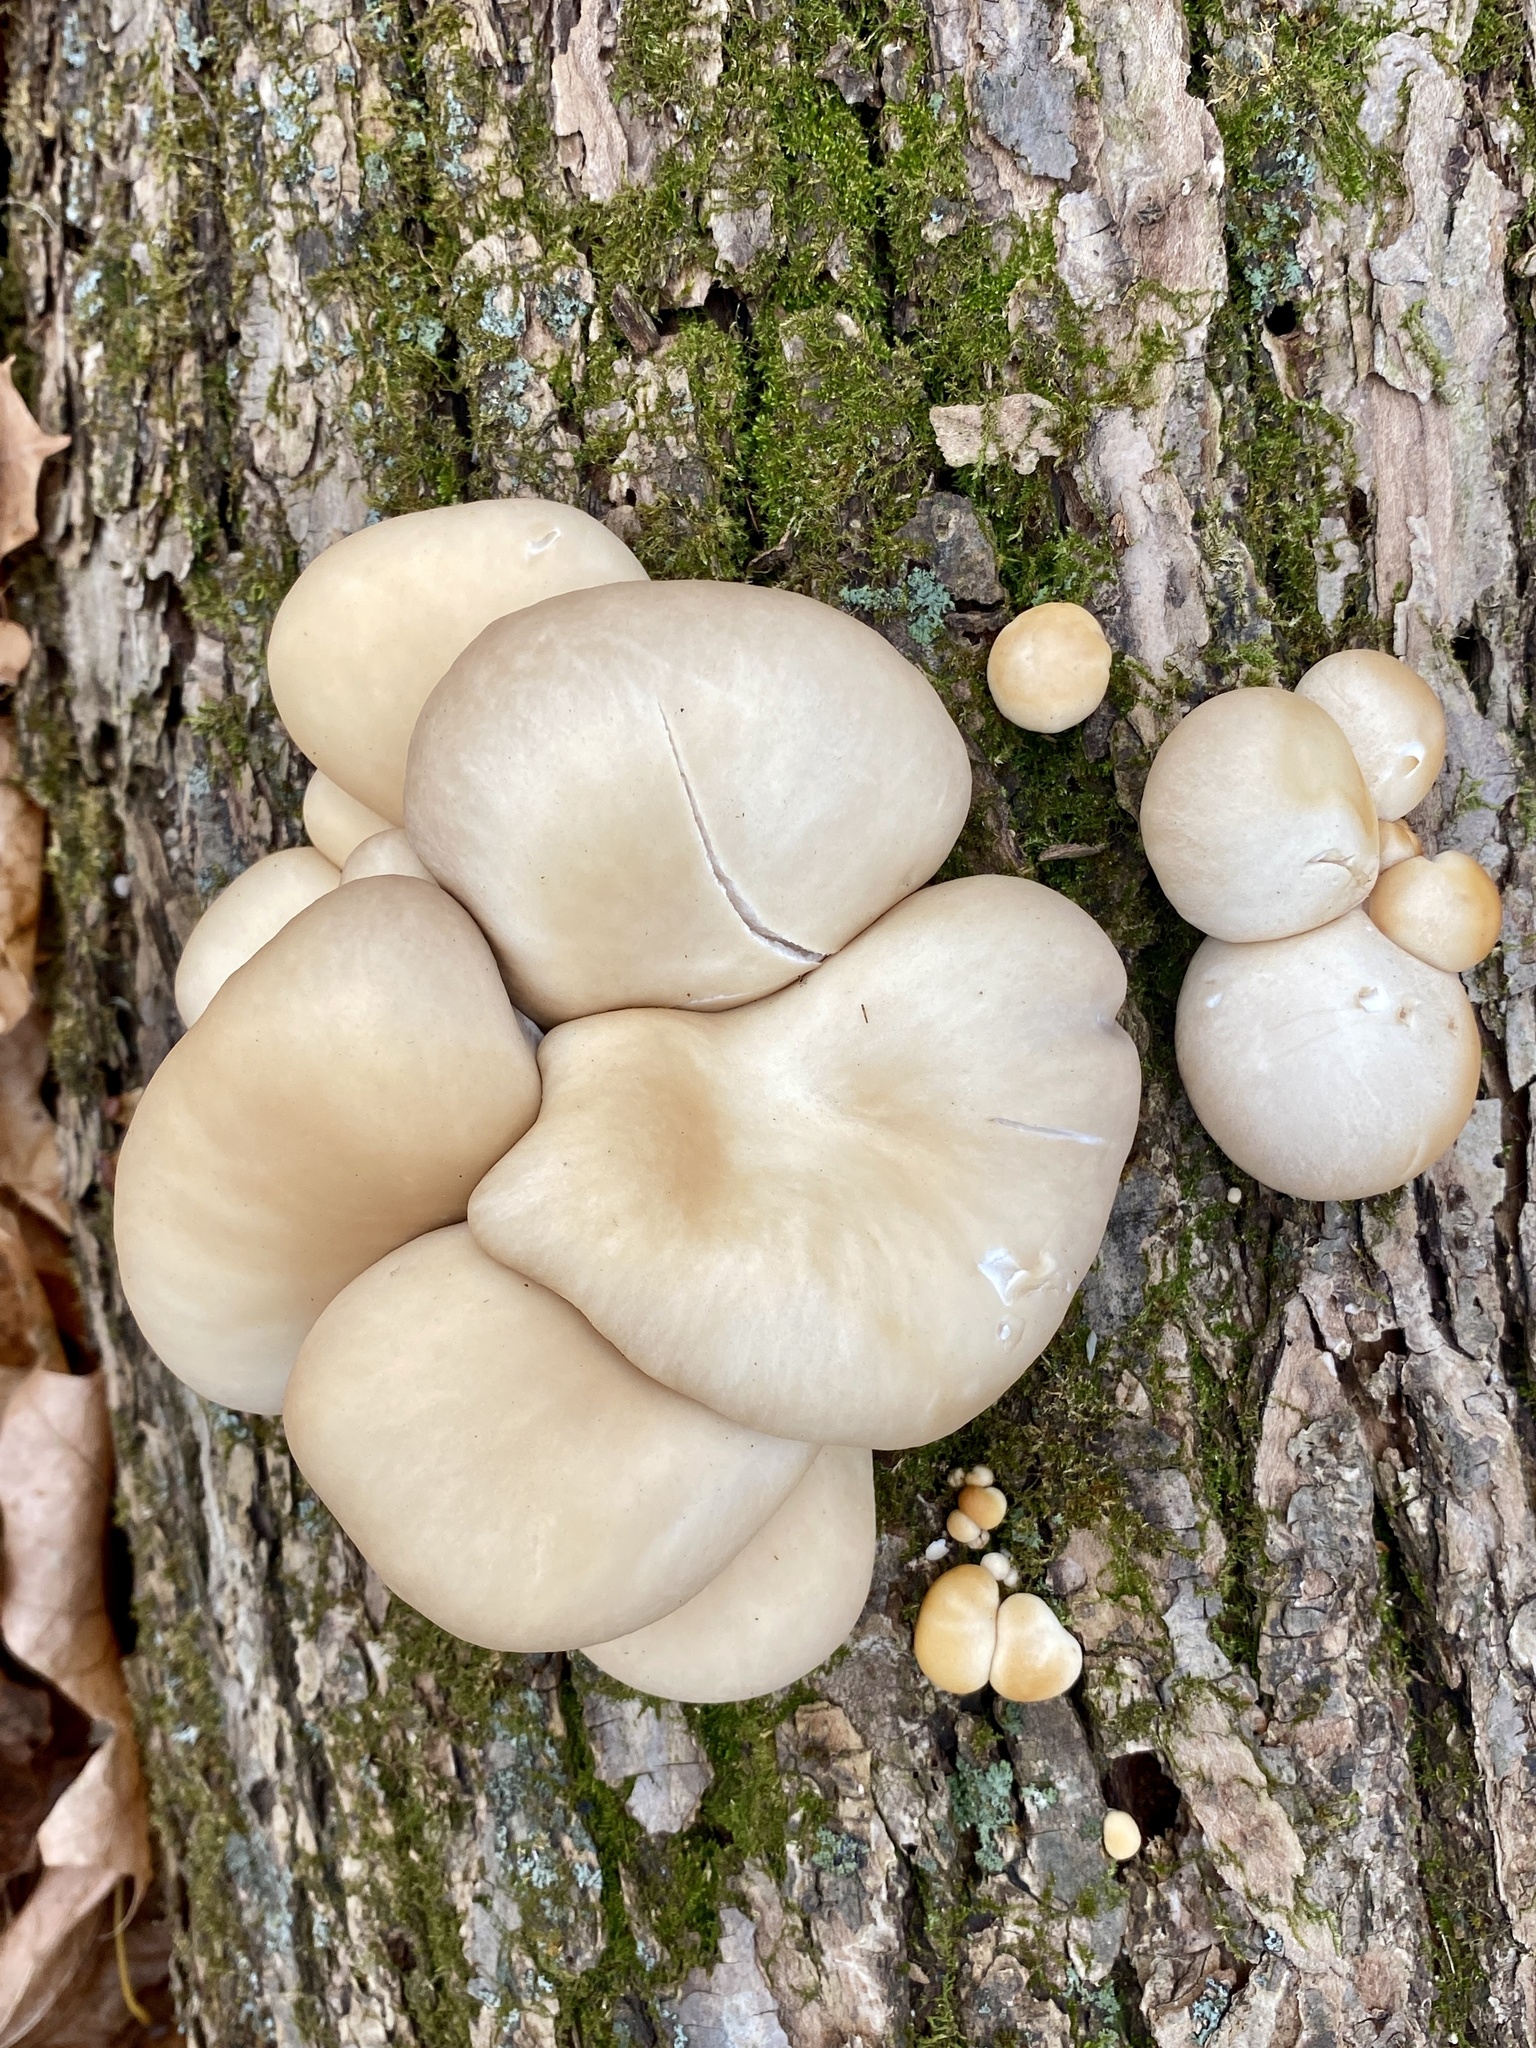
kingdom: Fungi
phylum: Basidiomycota
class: Agaricomycetes
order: Agaricales
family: Pleurotaceae
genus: Pleurotus
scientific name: Pleurotus ostreatus
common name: Oyster mushroom
